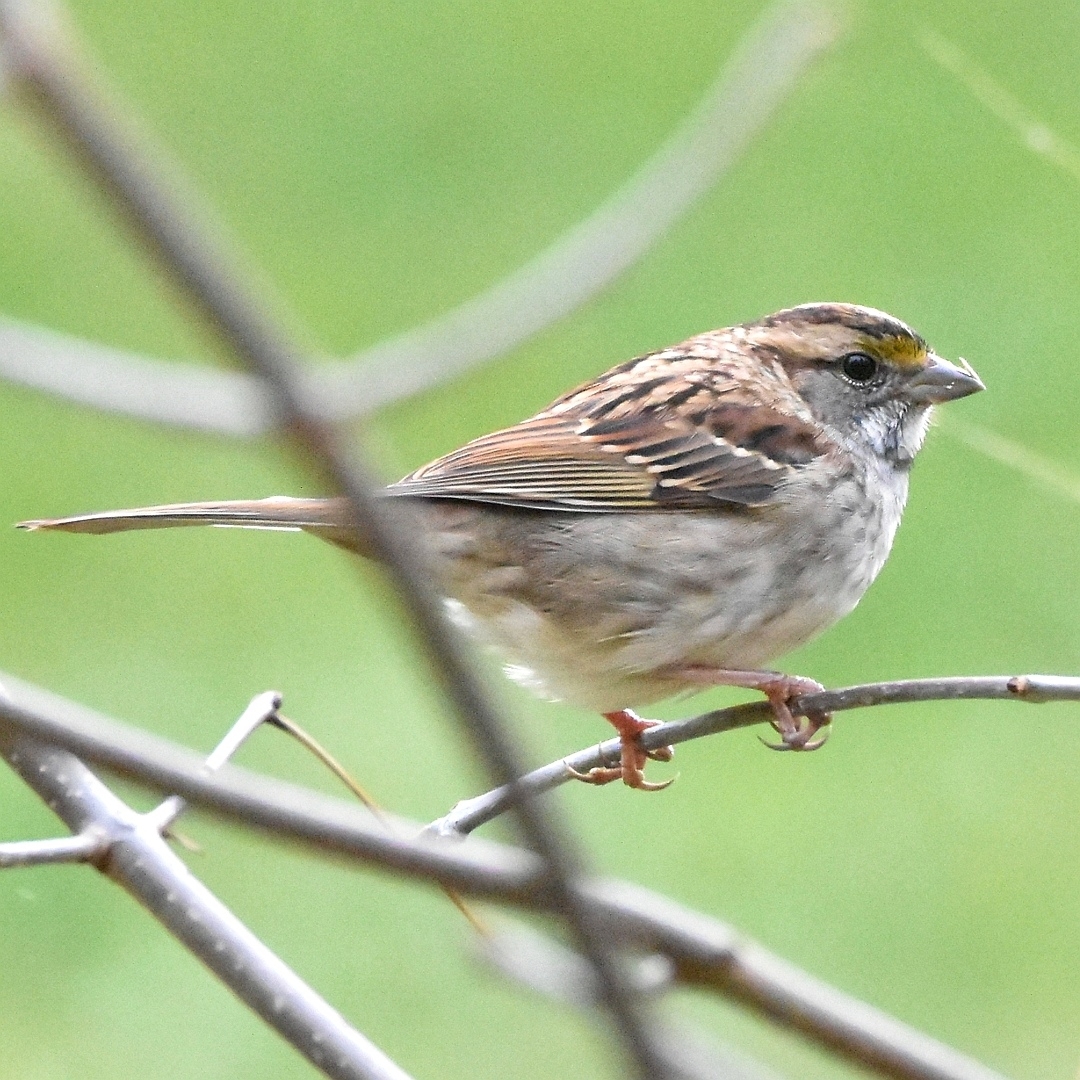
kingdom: Animalia
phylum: Chordata
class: Aves
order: Passeriformes
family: Passerellidae
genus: Zonotrichia
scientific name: Zonotrichia albicollis
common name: White-throated sparrow
